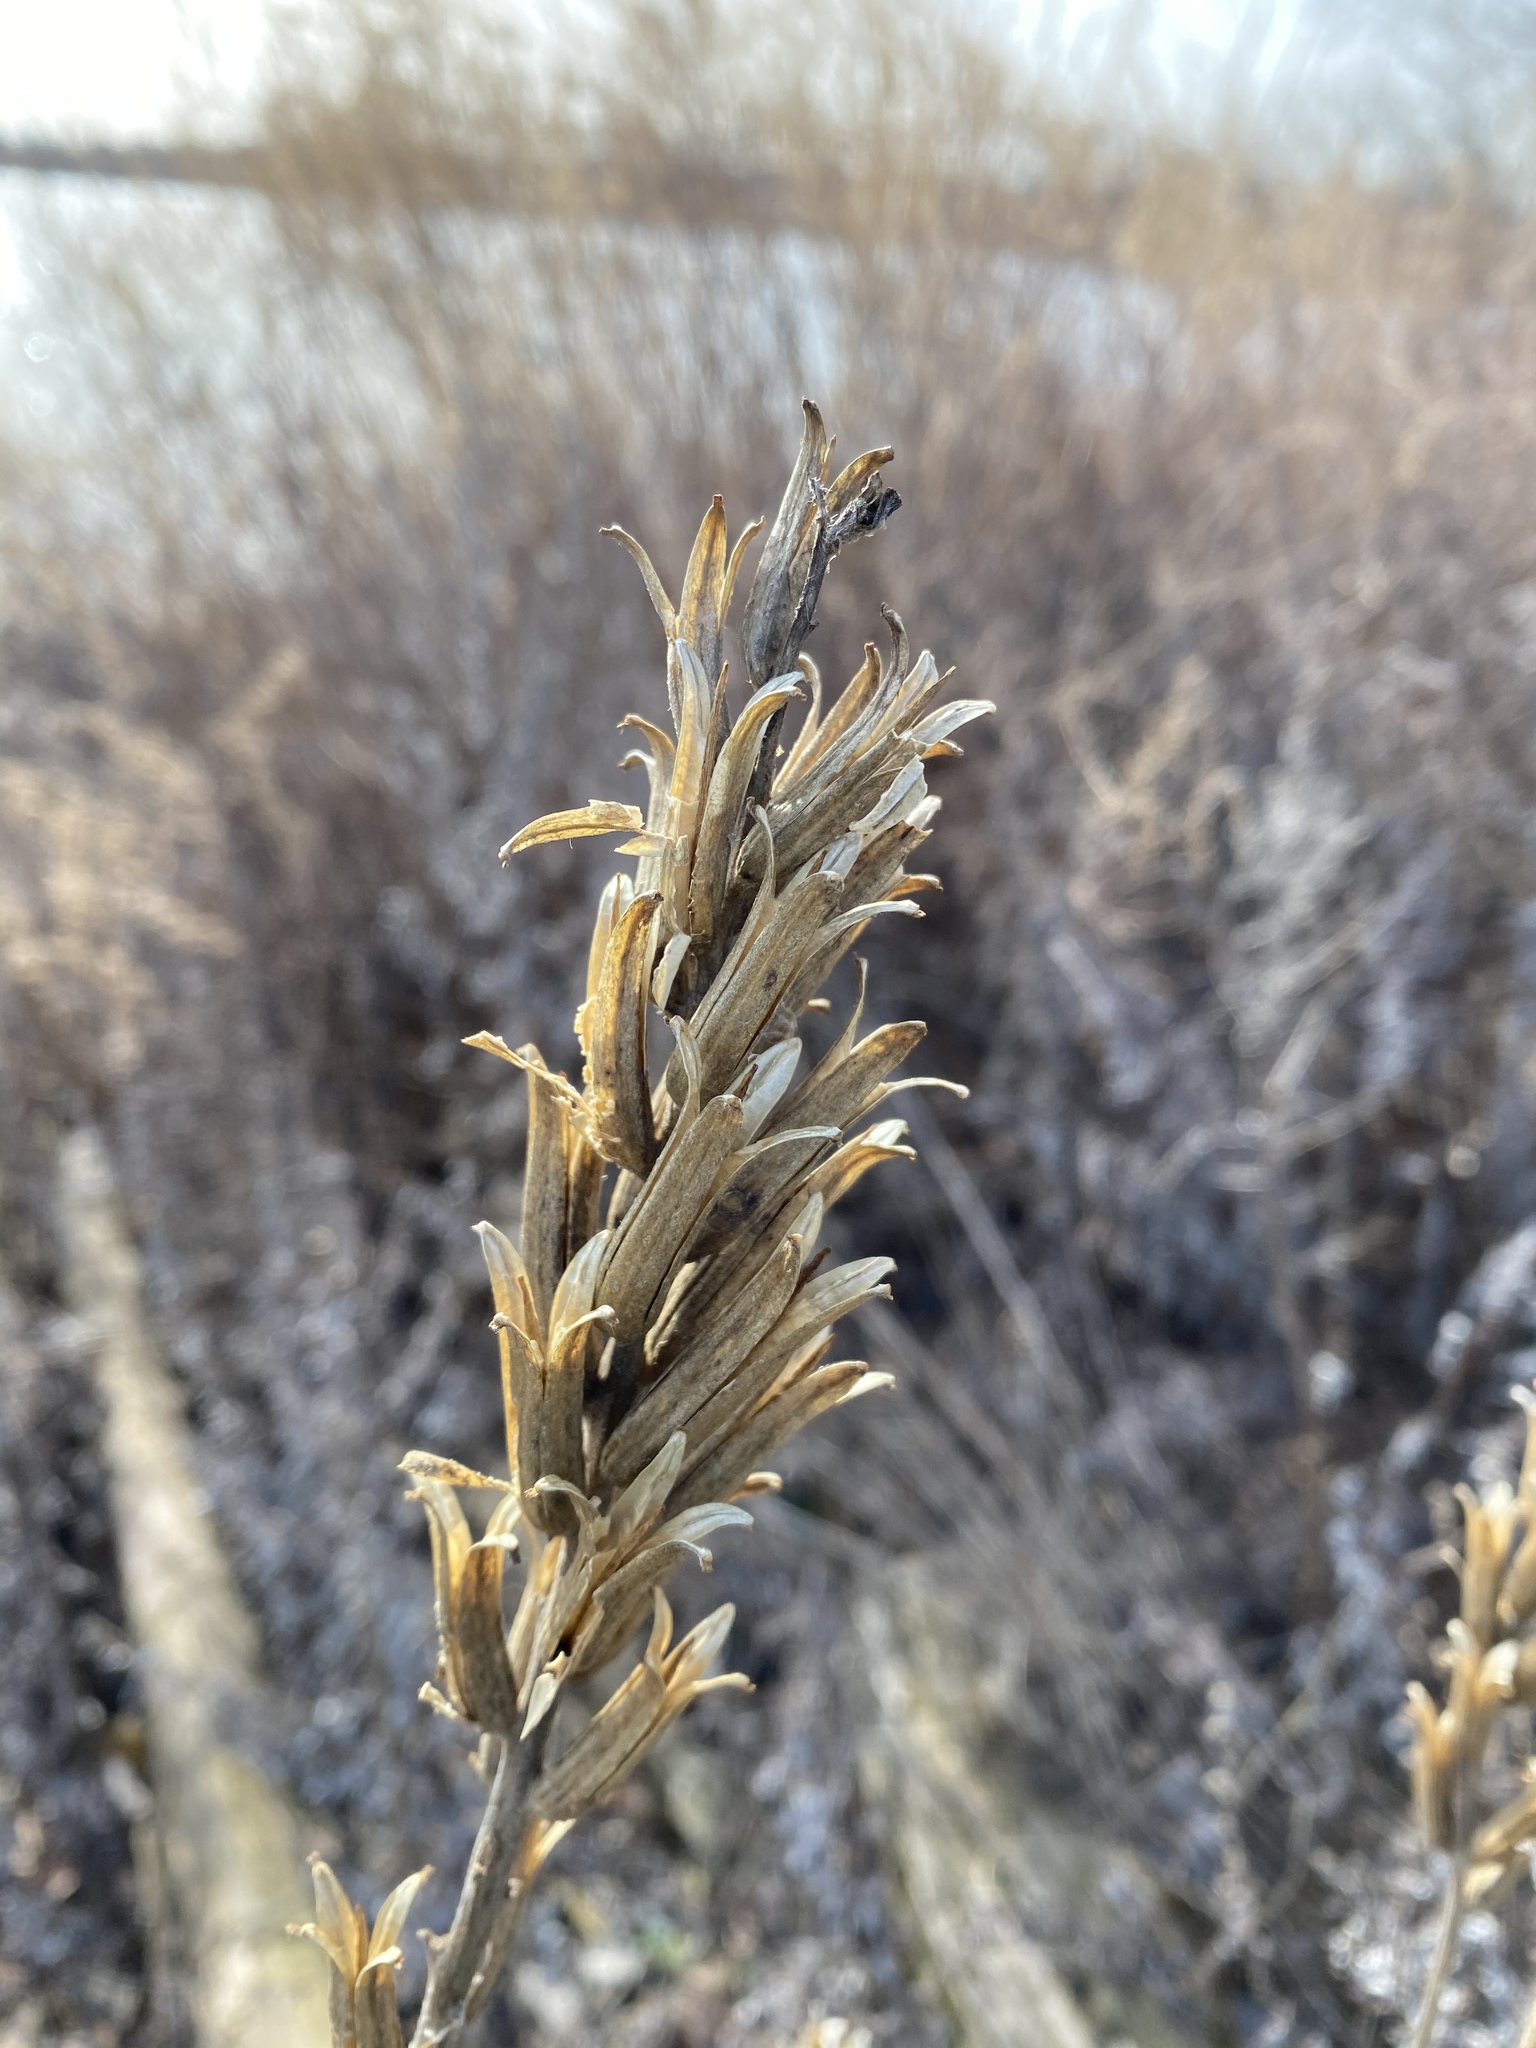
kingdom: Plantae
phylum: Tracheophyta
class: Magnoliopsida
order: Myrtales
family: Onagraceae
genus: Oenothera
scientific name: Oenothera biennis
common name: Common evening-primrose
